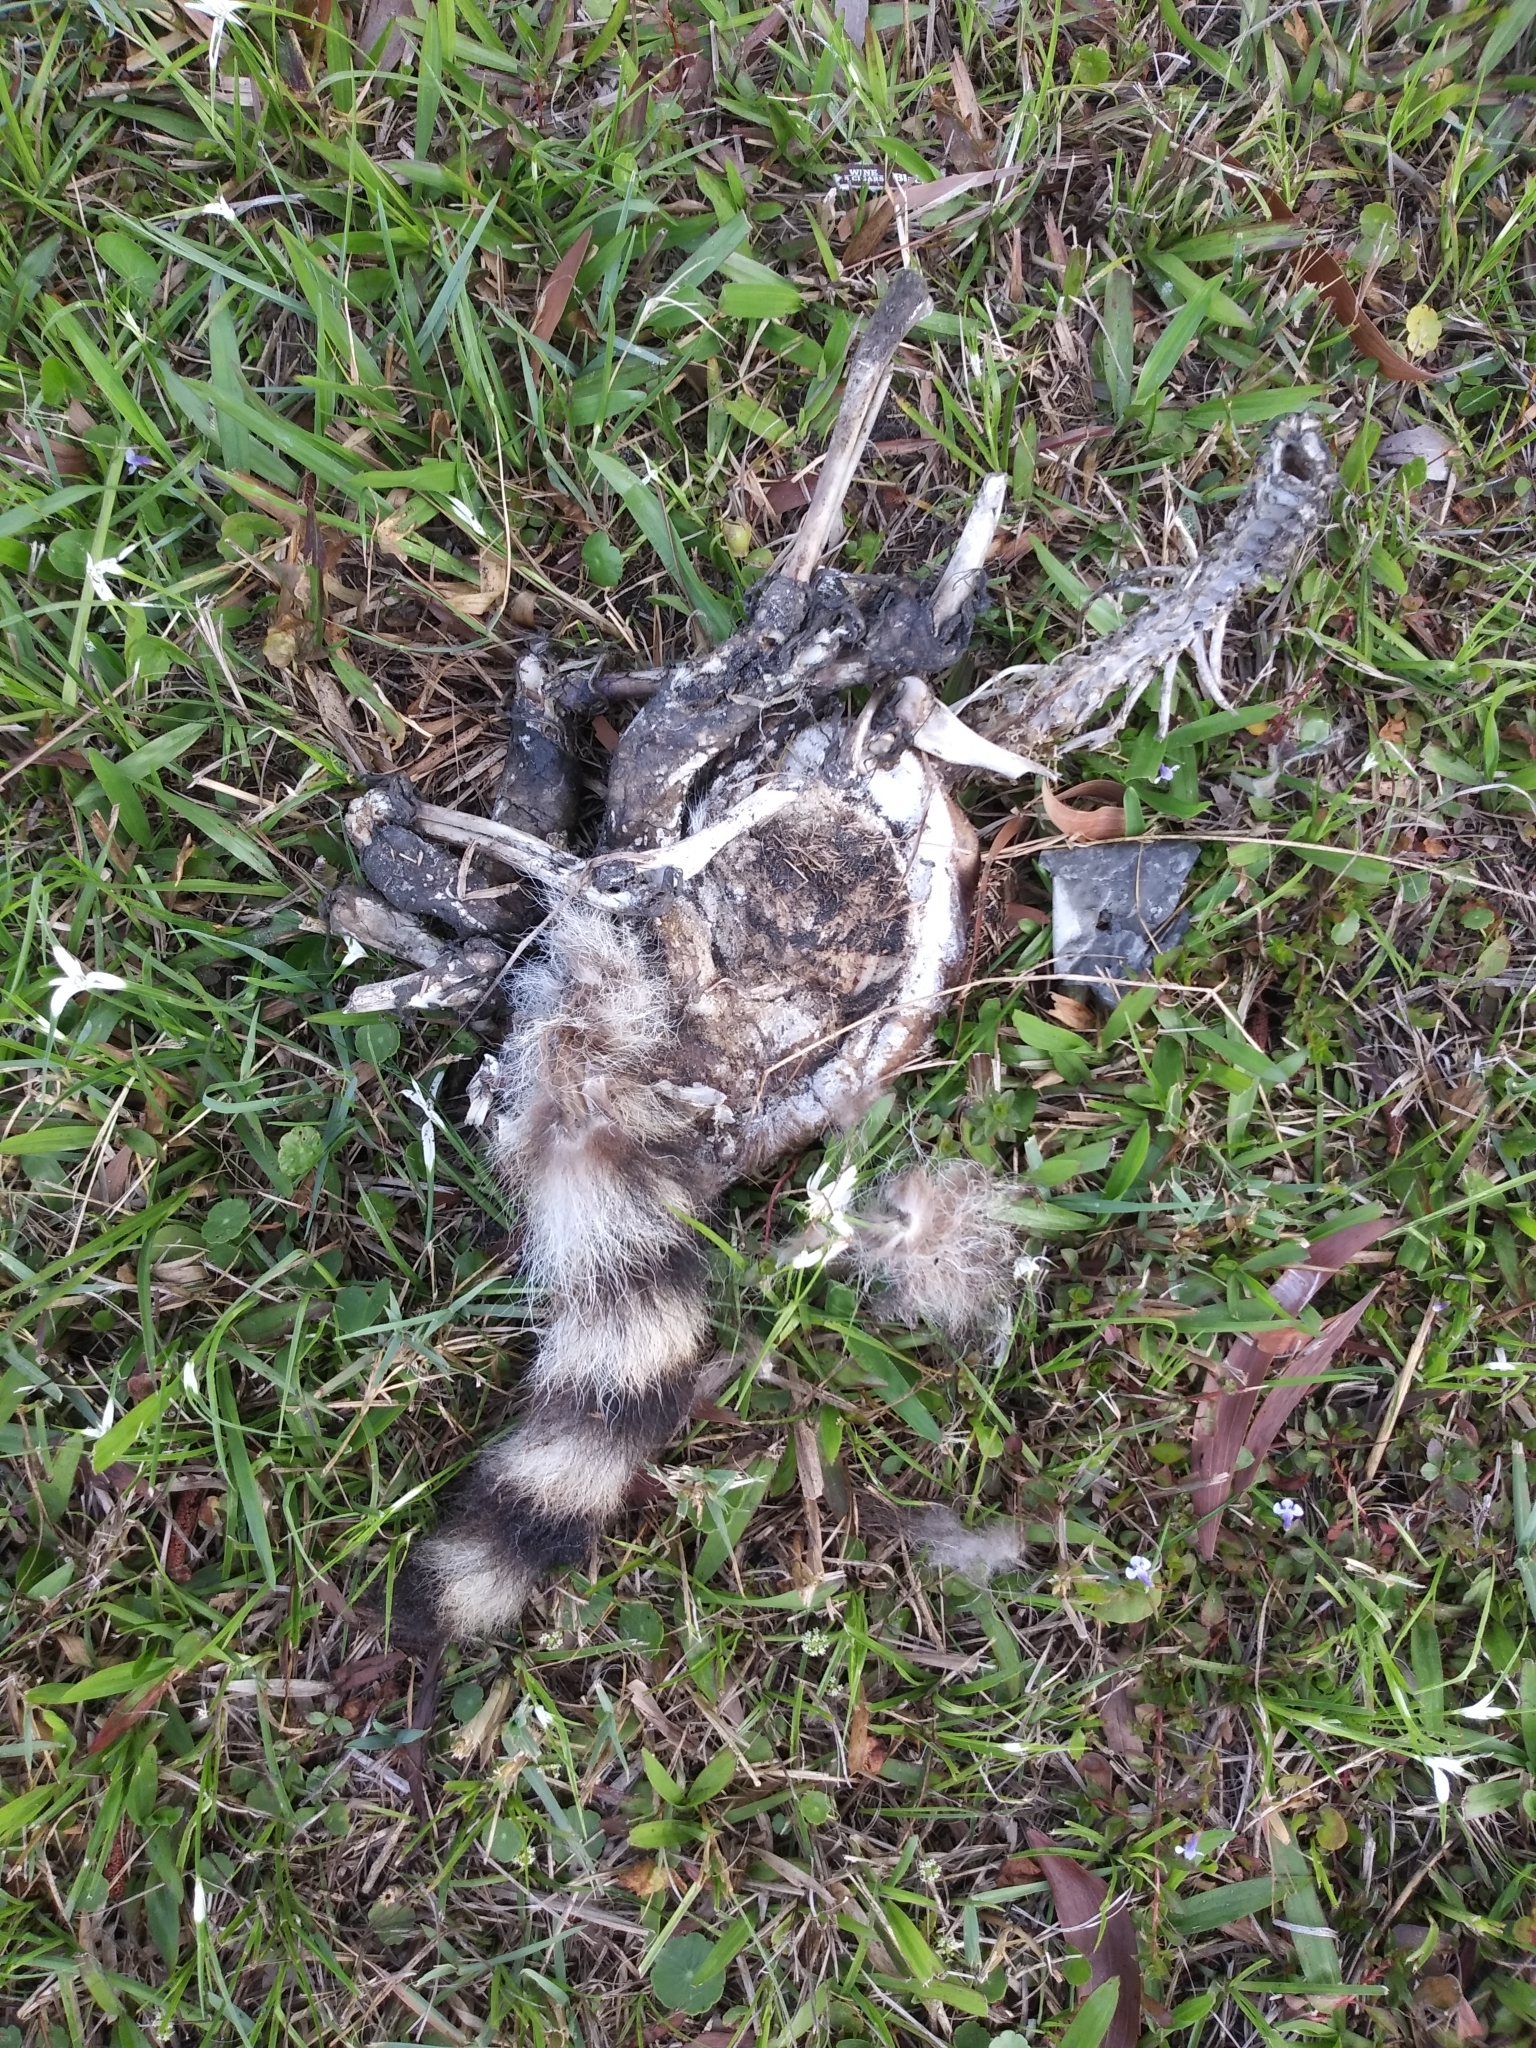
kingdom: Animalia
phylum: Chordata
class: Mammalia
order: Carnivora
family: Procyonidae
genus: Procyon
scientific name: Procyon lotor
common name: Raccoon
